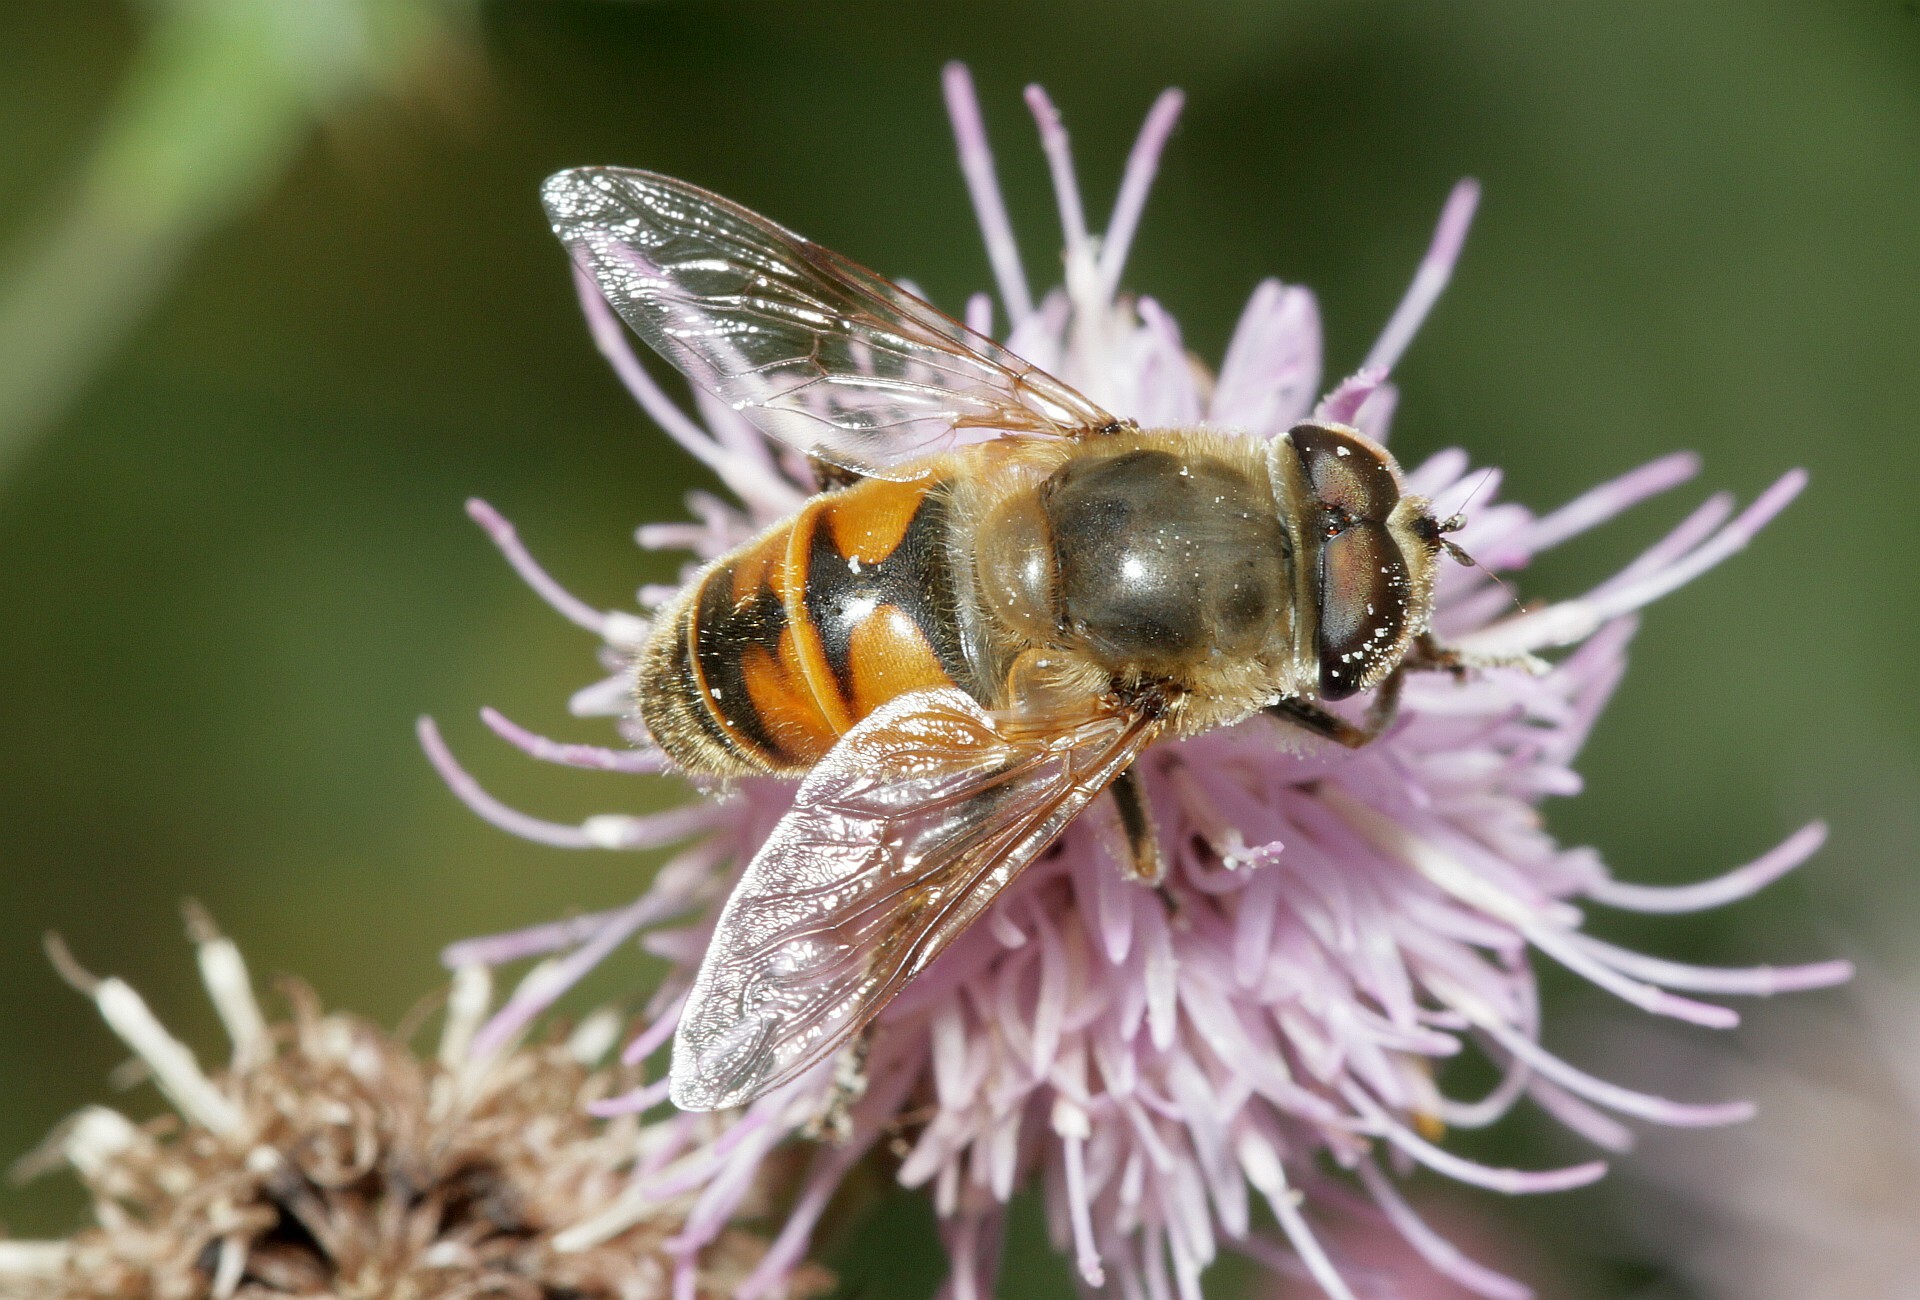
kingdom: Animalia
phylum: Arthropoda
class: Insecta
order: Diptera
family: Syrphidae
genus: Eristalis
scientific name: Eristalis tenax
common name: Drone fly
